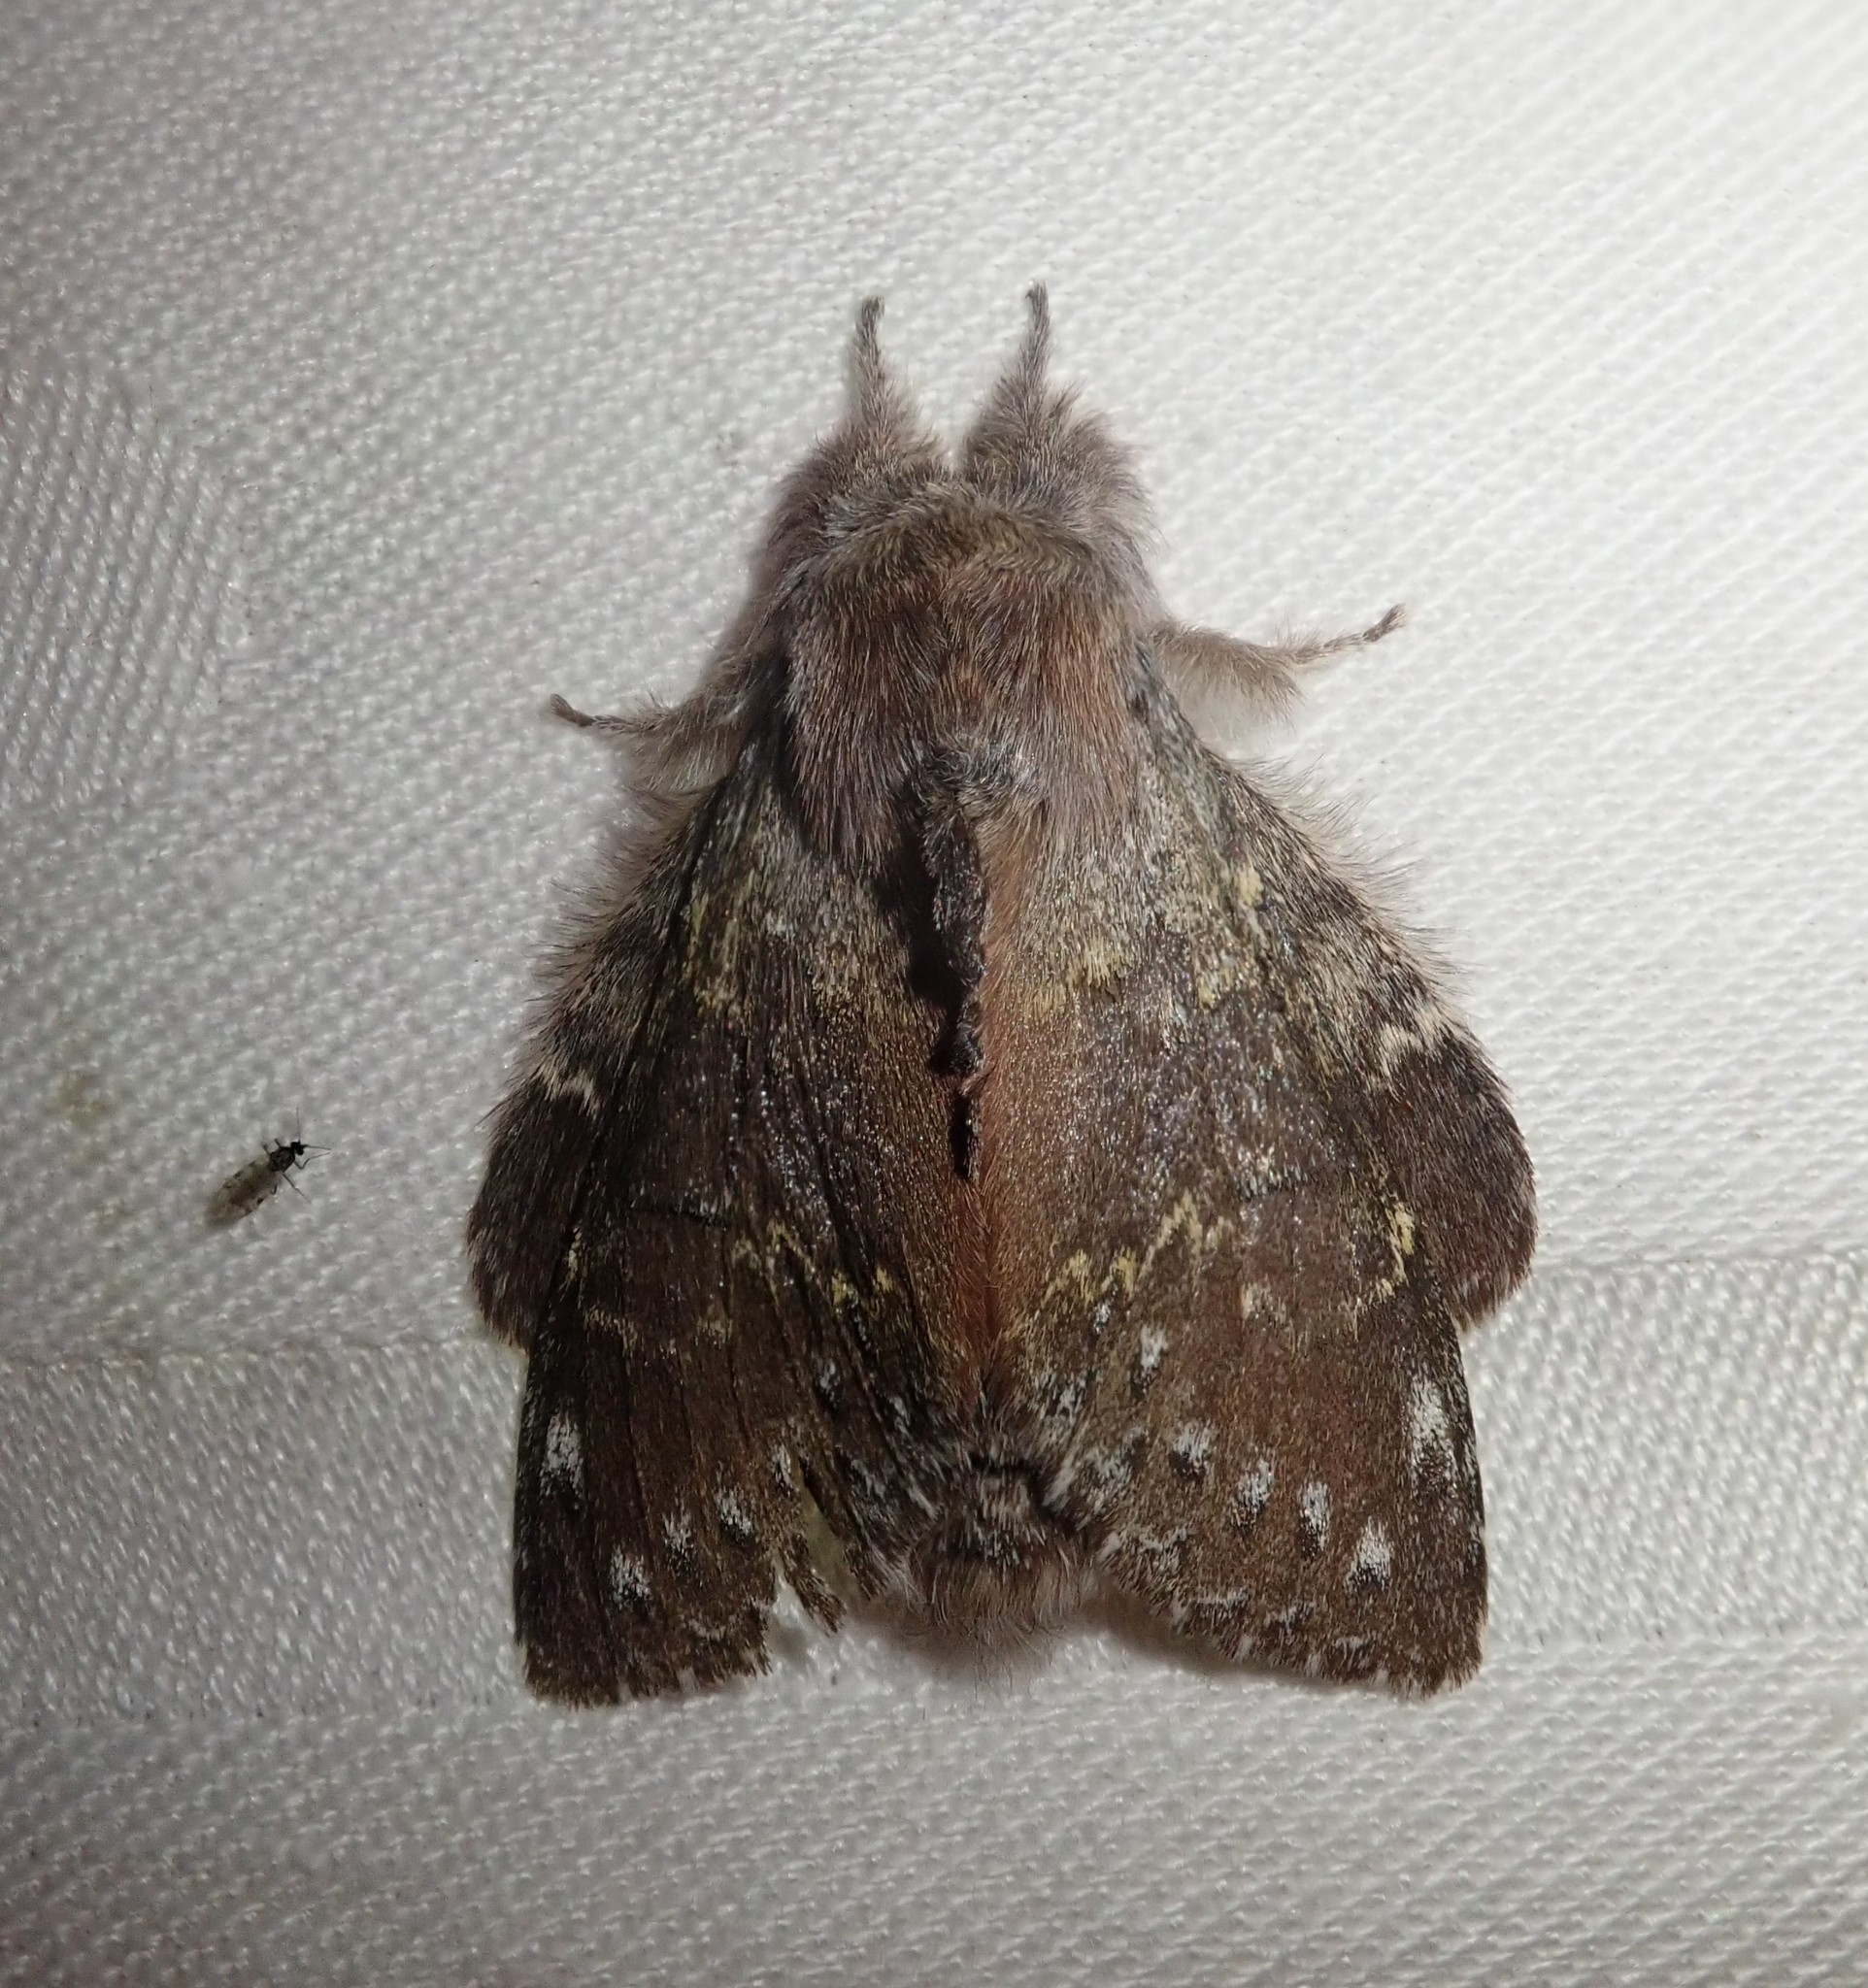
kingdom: Animalia
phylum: Arthropoda
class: Insecta
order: Lepidoptera
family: Notodontidae
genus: Stauropus
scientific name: Stauropus fagi
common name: Lobster moth
